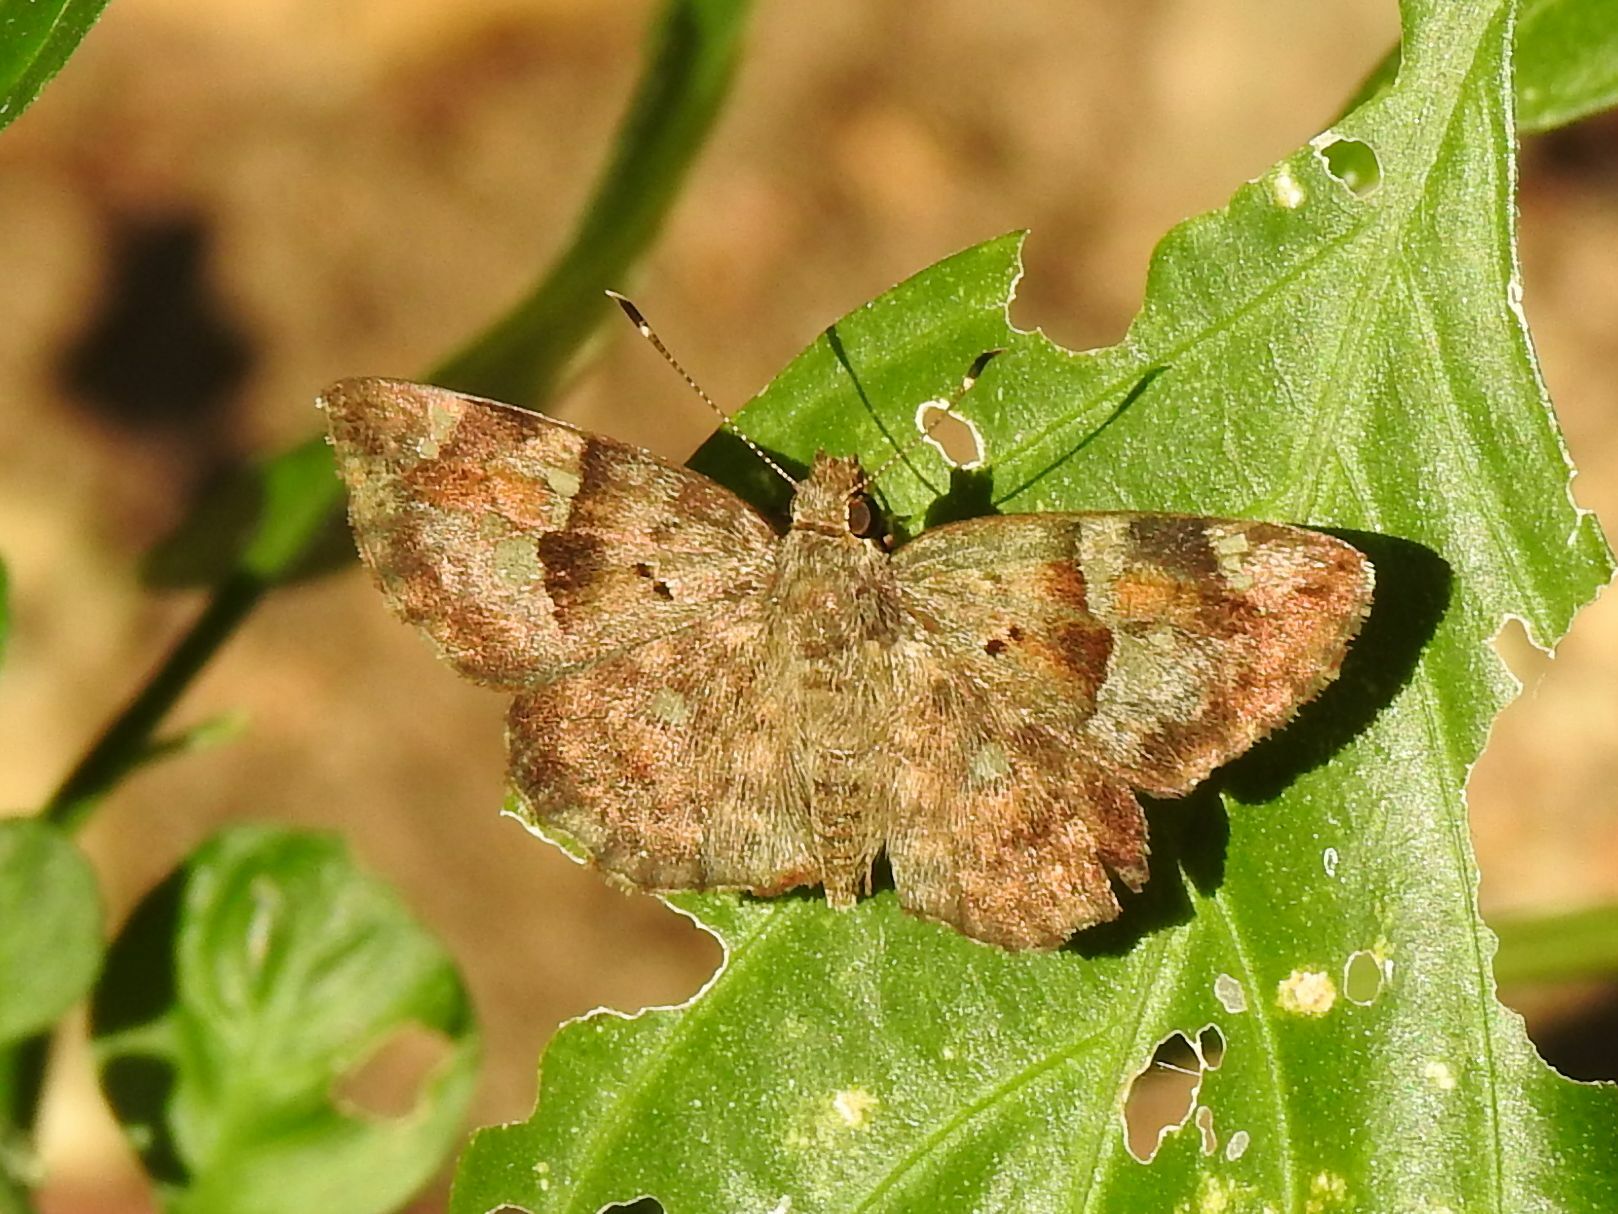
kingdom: Animalia
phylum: Arthropoda
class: Insecta
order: Lepidoptera
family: Hesperiidae
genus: Sarangesa
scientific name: Sarangesa motozi
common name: Forest elfin
